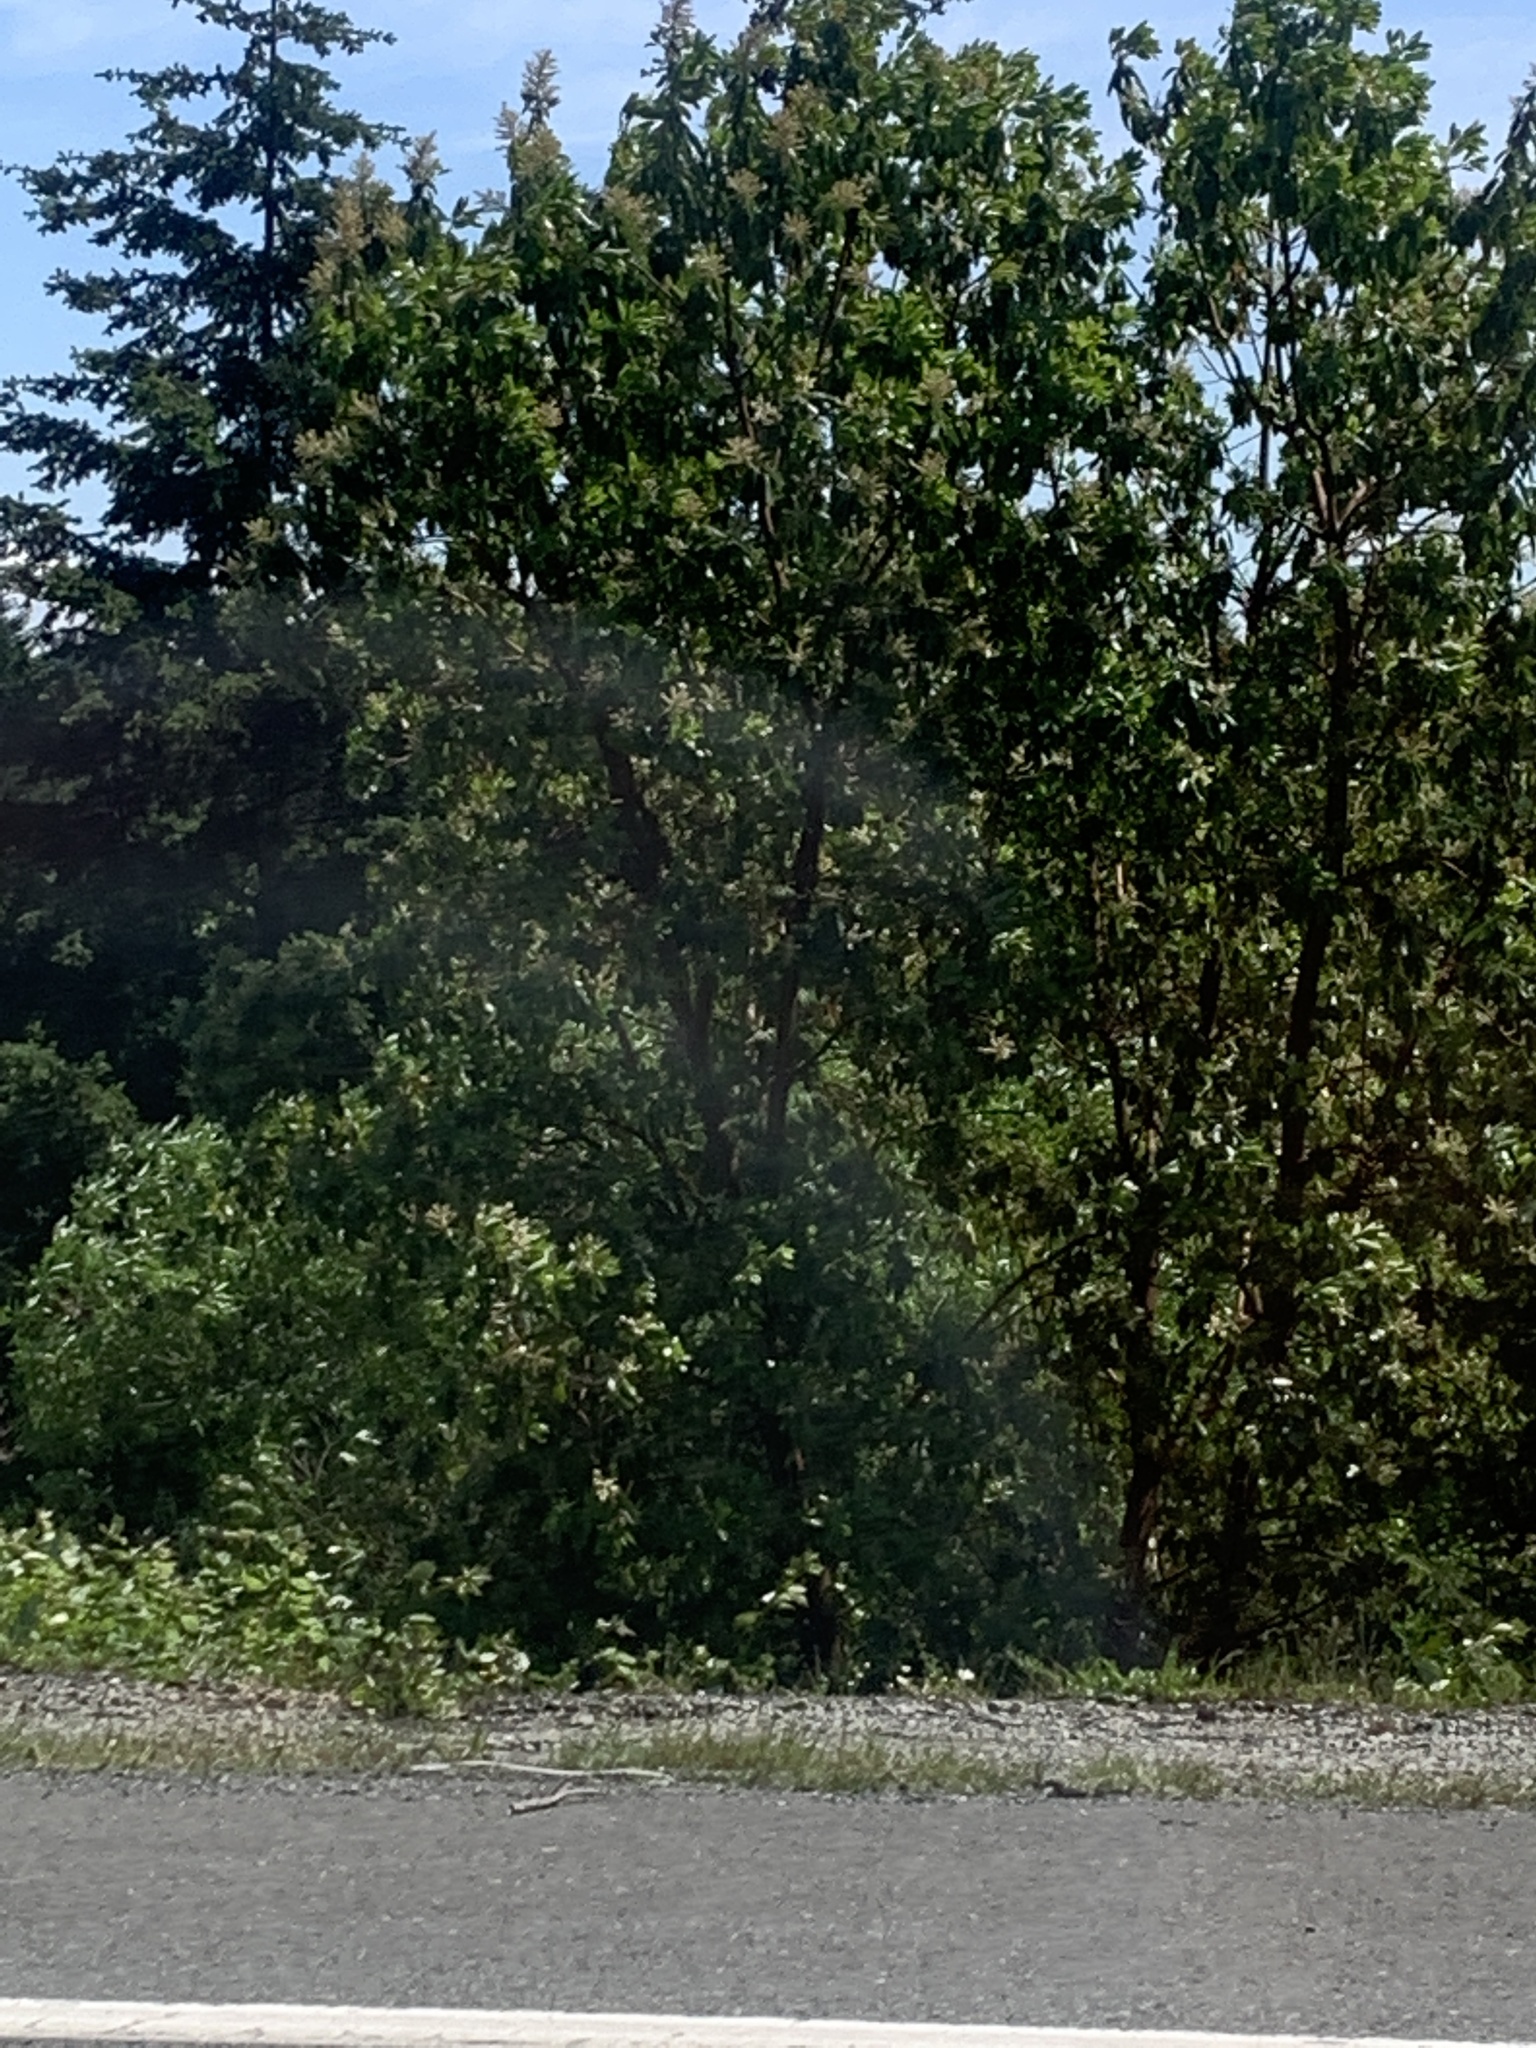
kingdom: Plantae
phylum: Tracheophyta
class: Magnoliopsida
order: Ericales
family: Ericaceae
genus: Arbutus
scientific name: Arbutus menziesii
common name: Pacific madrone
